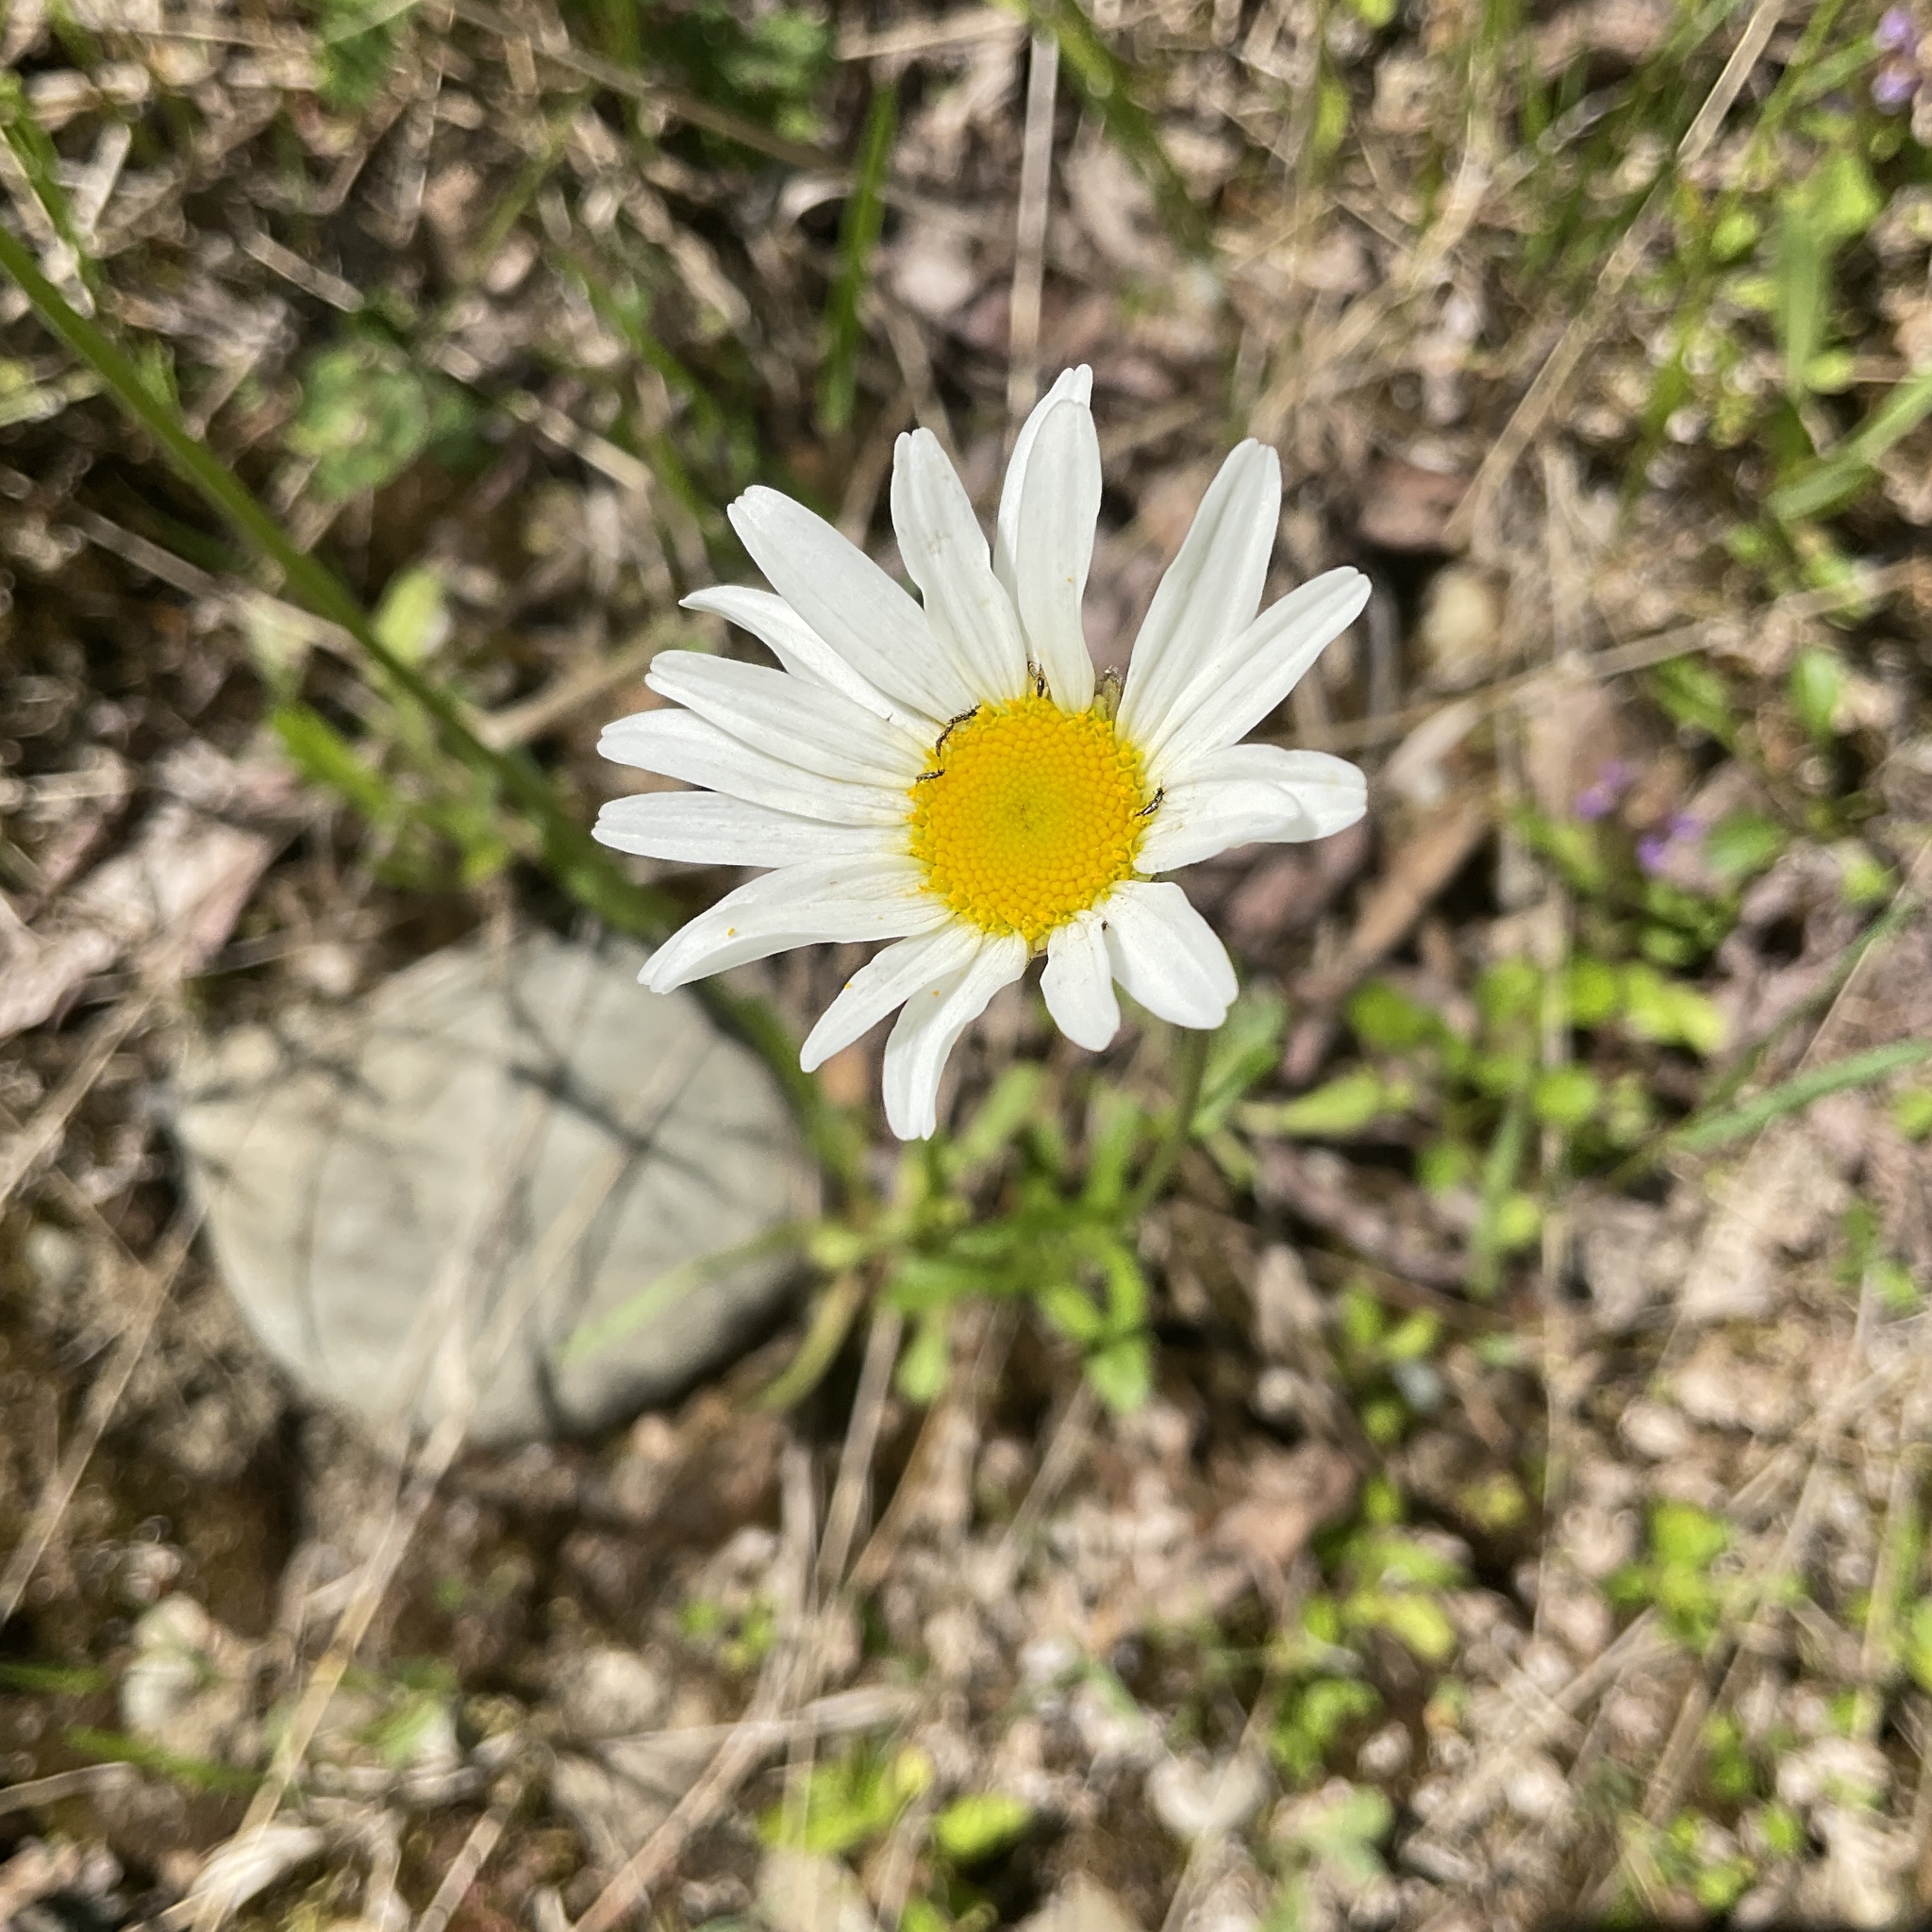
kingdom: Plantae
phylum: Tracheophyta
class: Magnoliopsida
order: Asterales
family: Asteraceae
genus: Leucanthemum
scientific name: Leucanthemum vulgare
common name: Oxeye daisy
